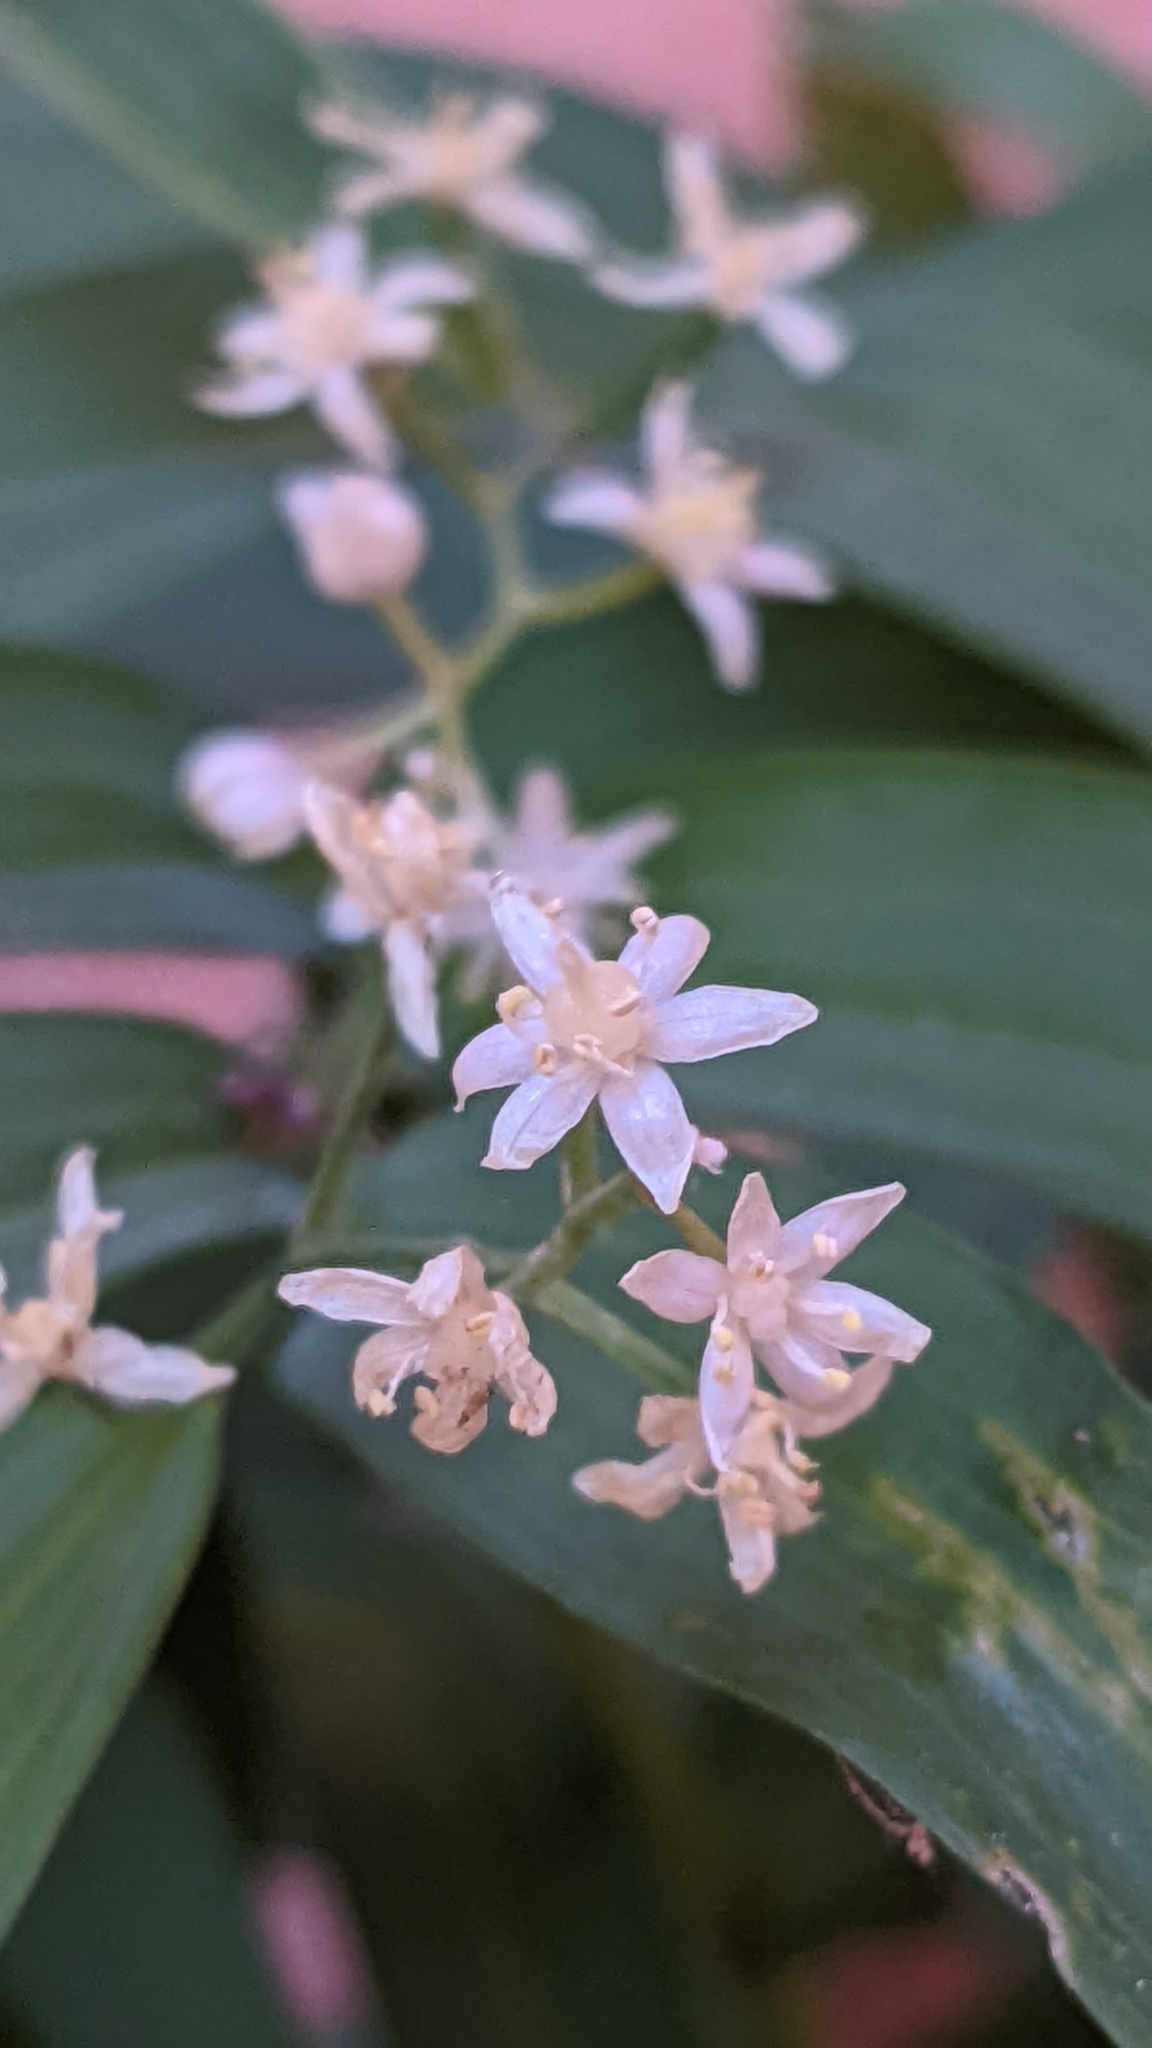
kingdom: Plantae
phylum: Tracheophyta
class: Liliopsida
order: Asparagales
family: Asparagaceae
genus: Maianthemum
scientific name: Maianthemum stellatum
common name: Little false solomon's seal
